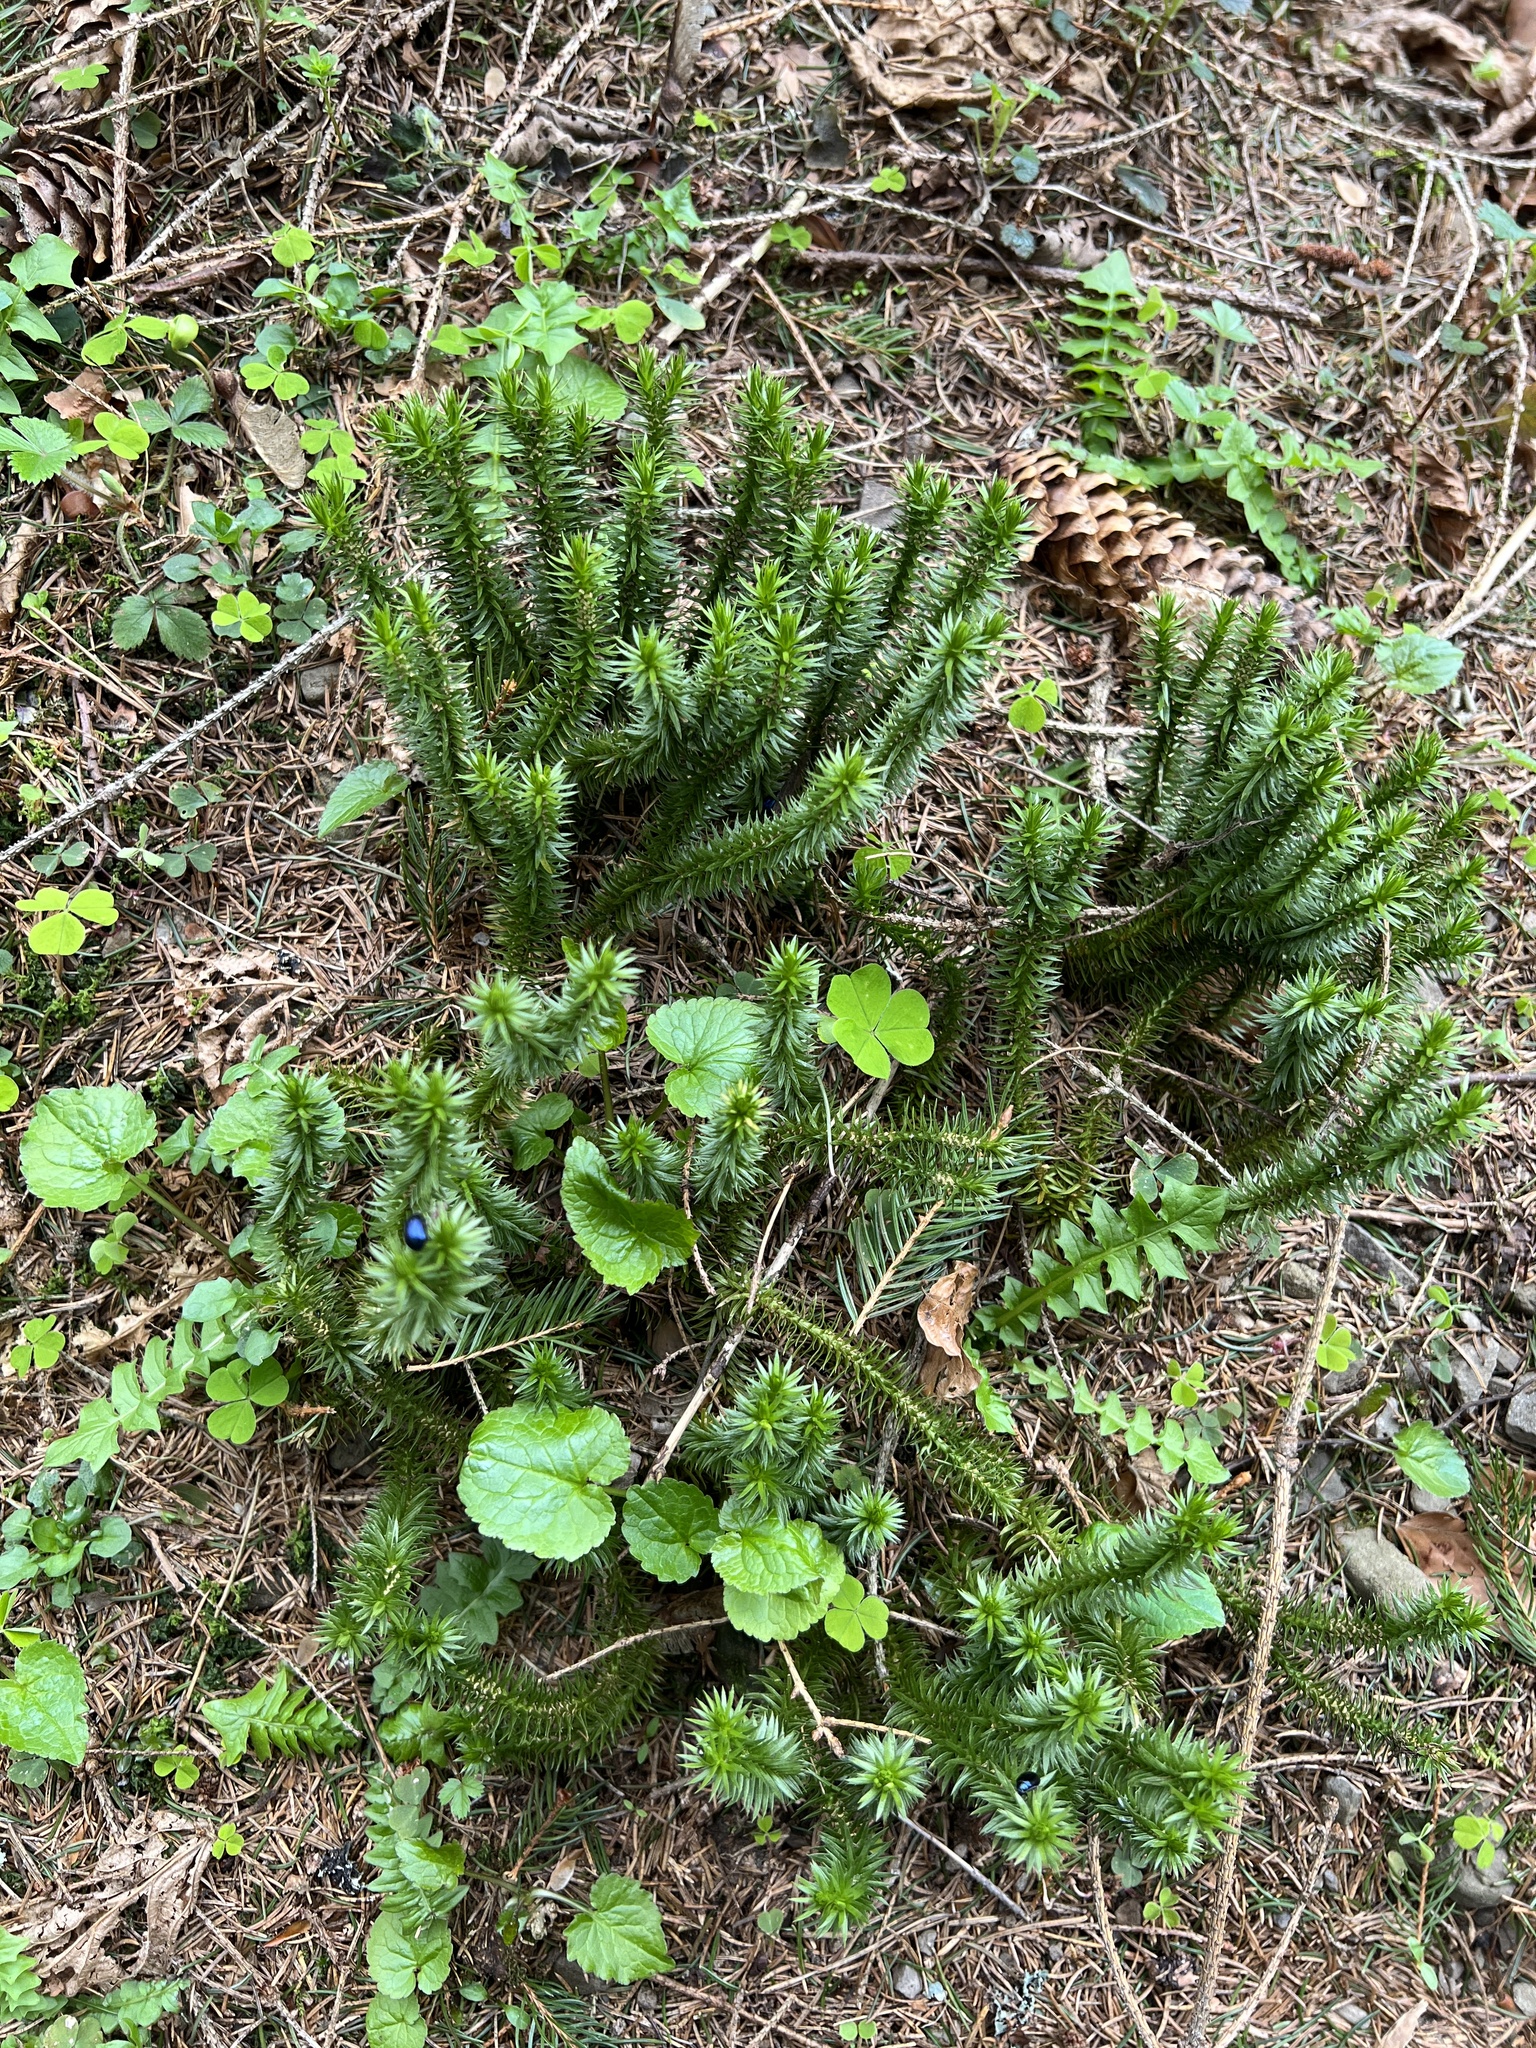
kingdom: Plantae
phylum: Tracheophyta
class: Lycopodiopsida
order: Lycopodiales
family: Lycopodiaceae
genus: Huperzia
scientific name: Huperzia selago
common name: Northern firmoss
